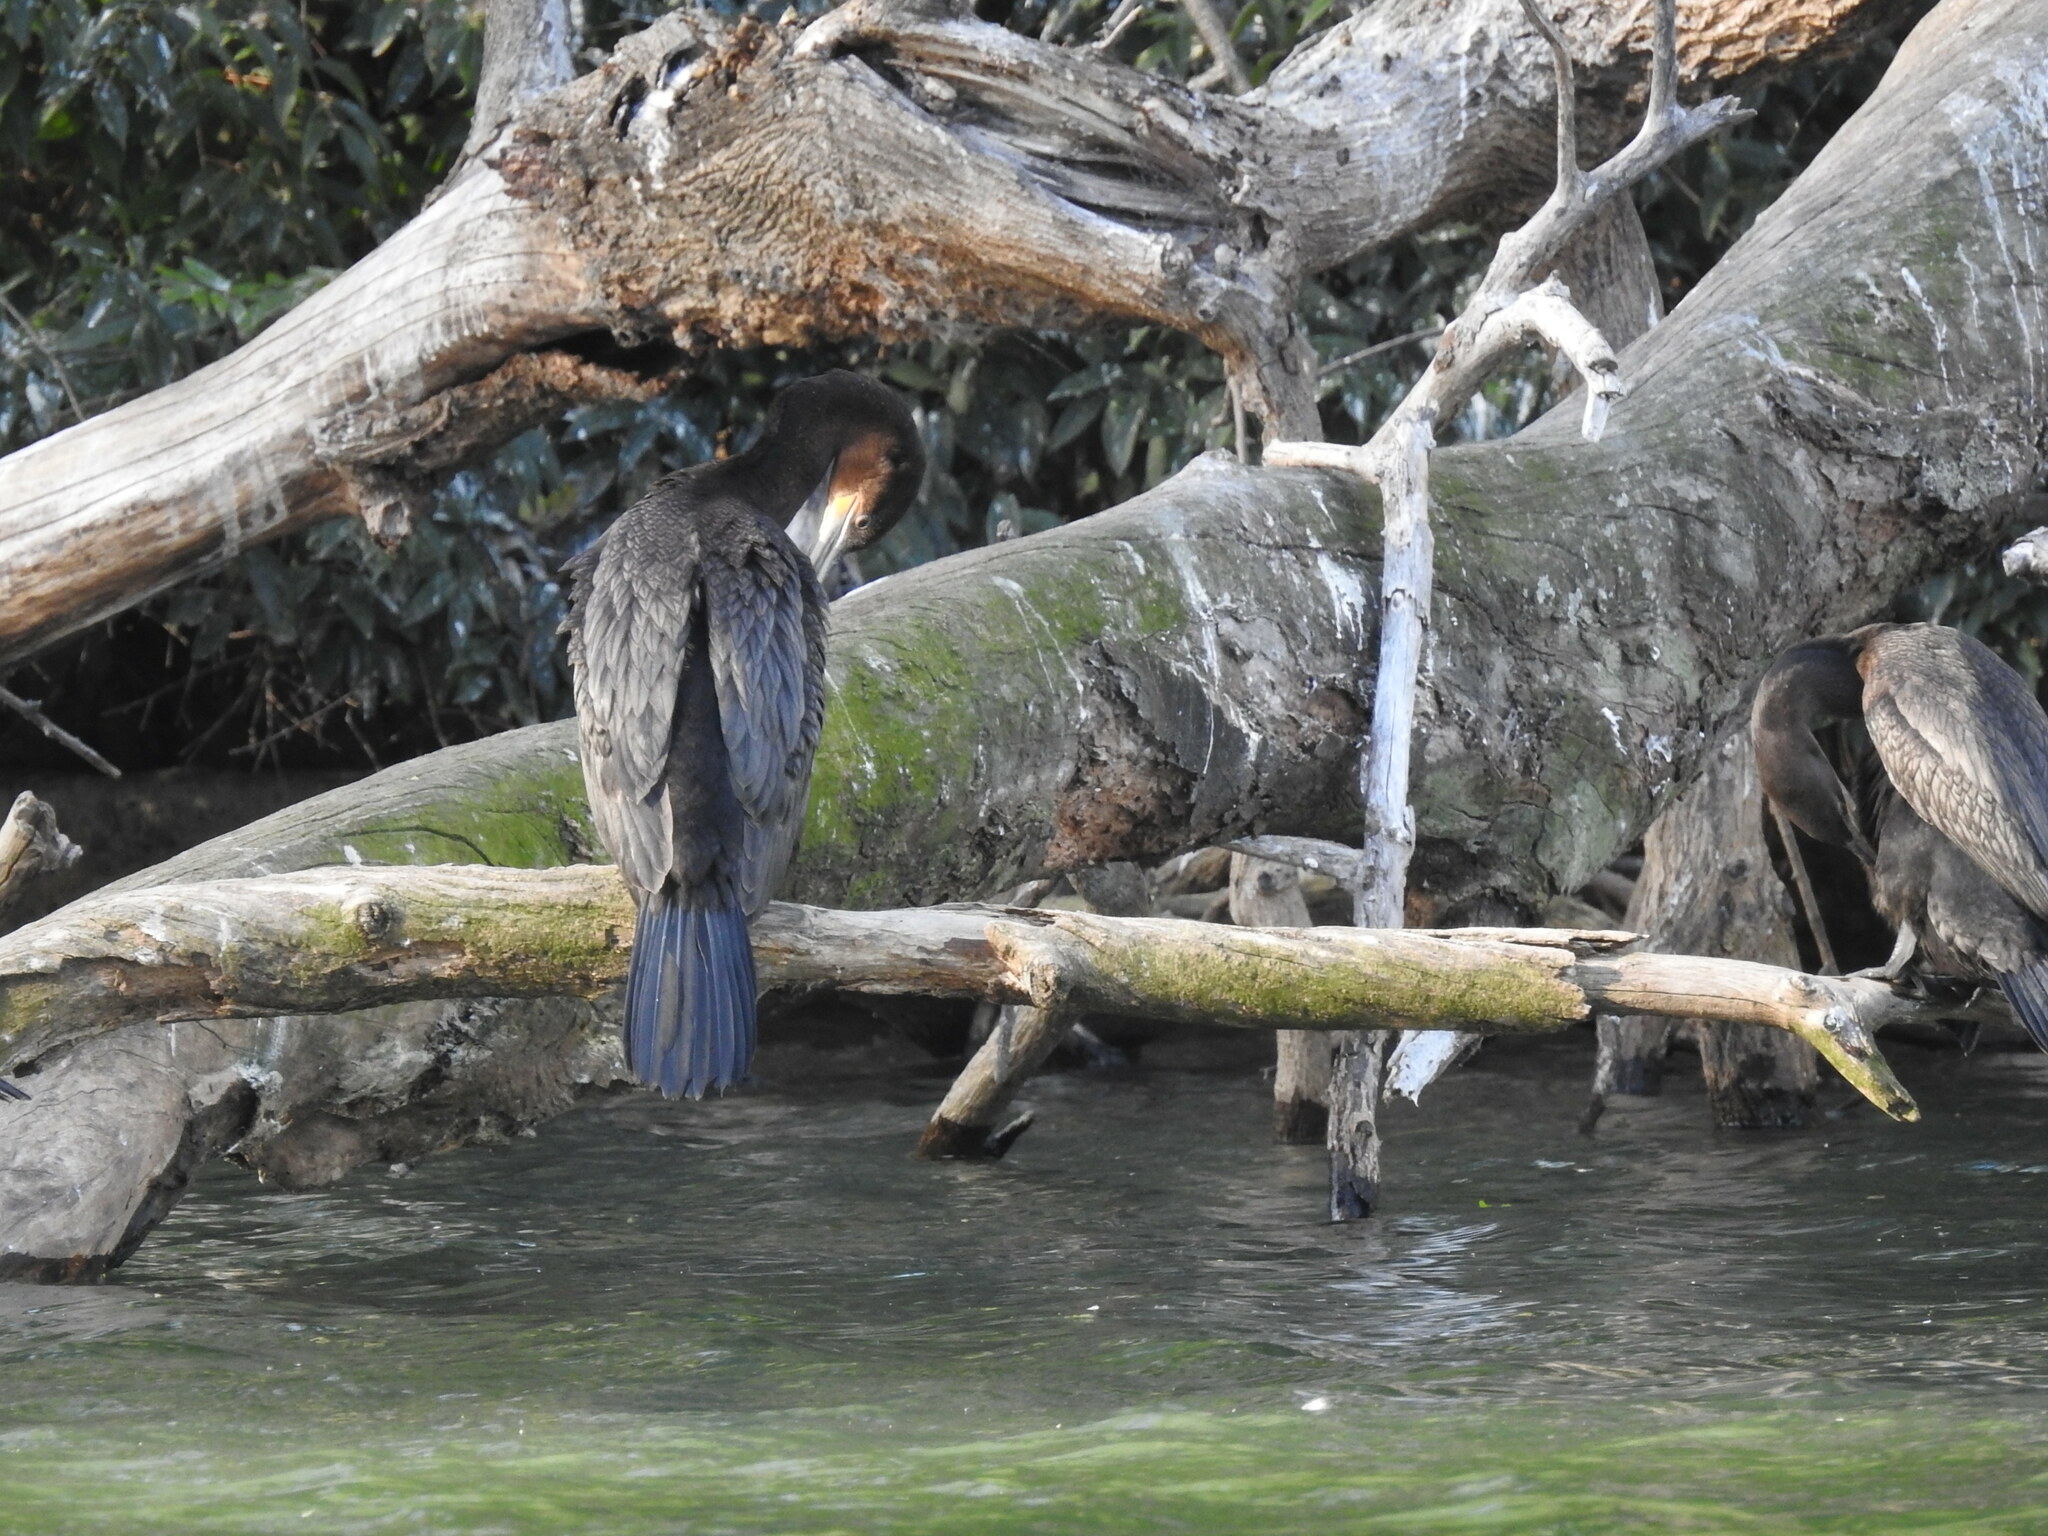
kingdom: Animalia
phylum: Chordata
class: Aves
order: Suliformes
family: Phalacrocoracidae
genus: Phalacrocorax
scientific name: Phalacrocorax brasilianus
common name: Neotropic cormorant
